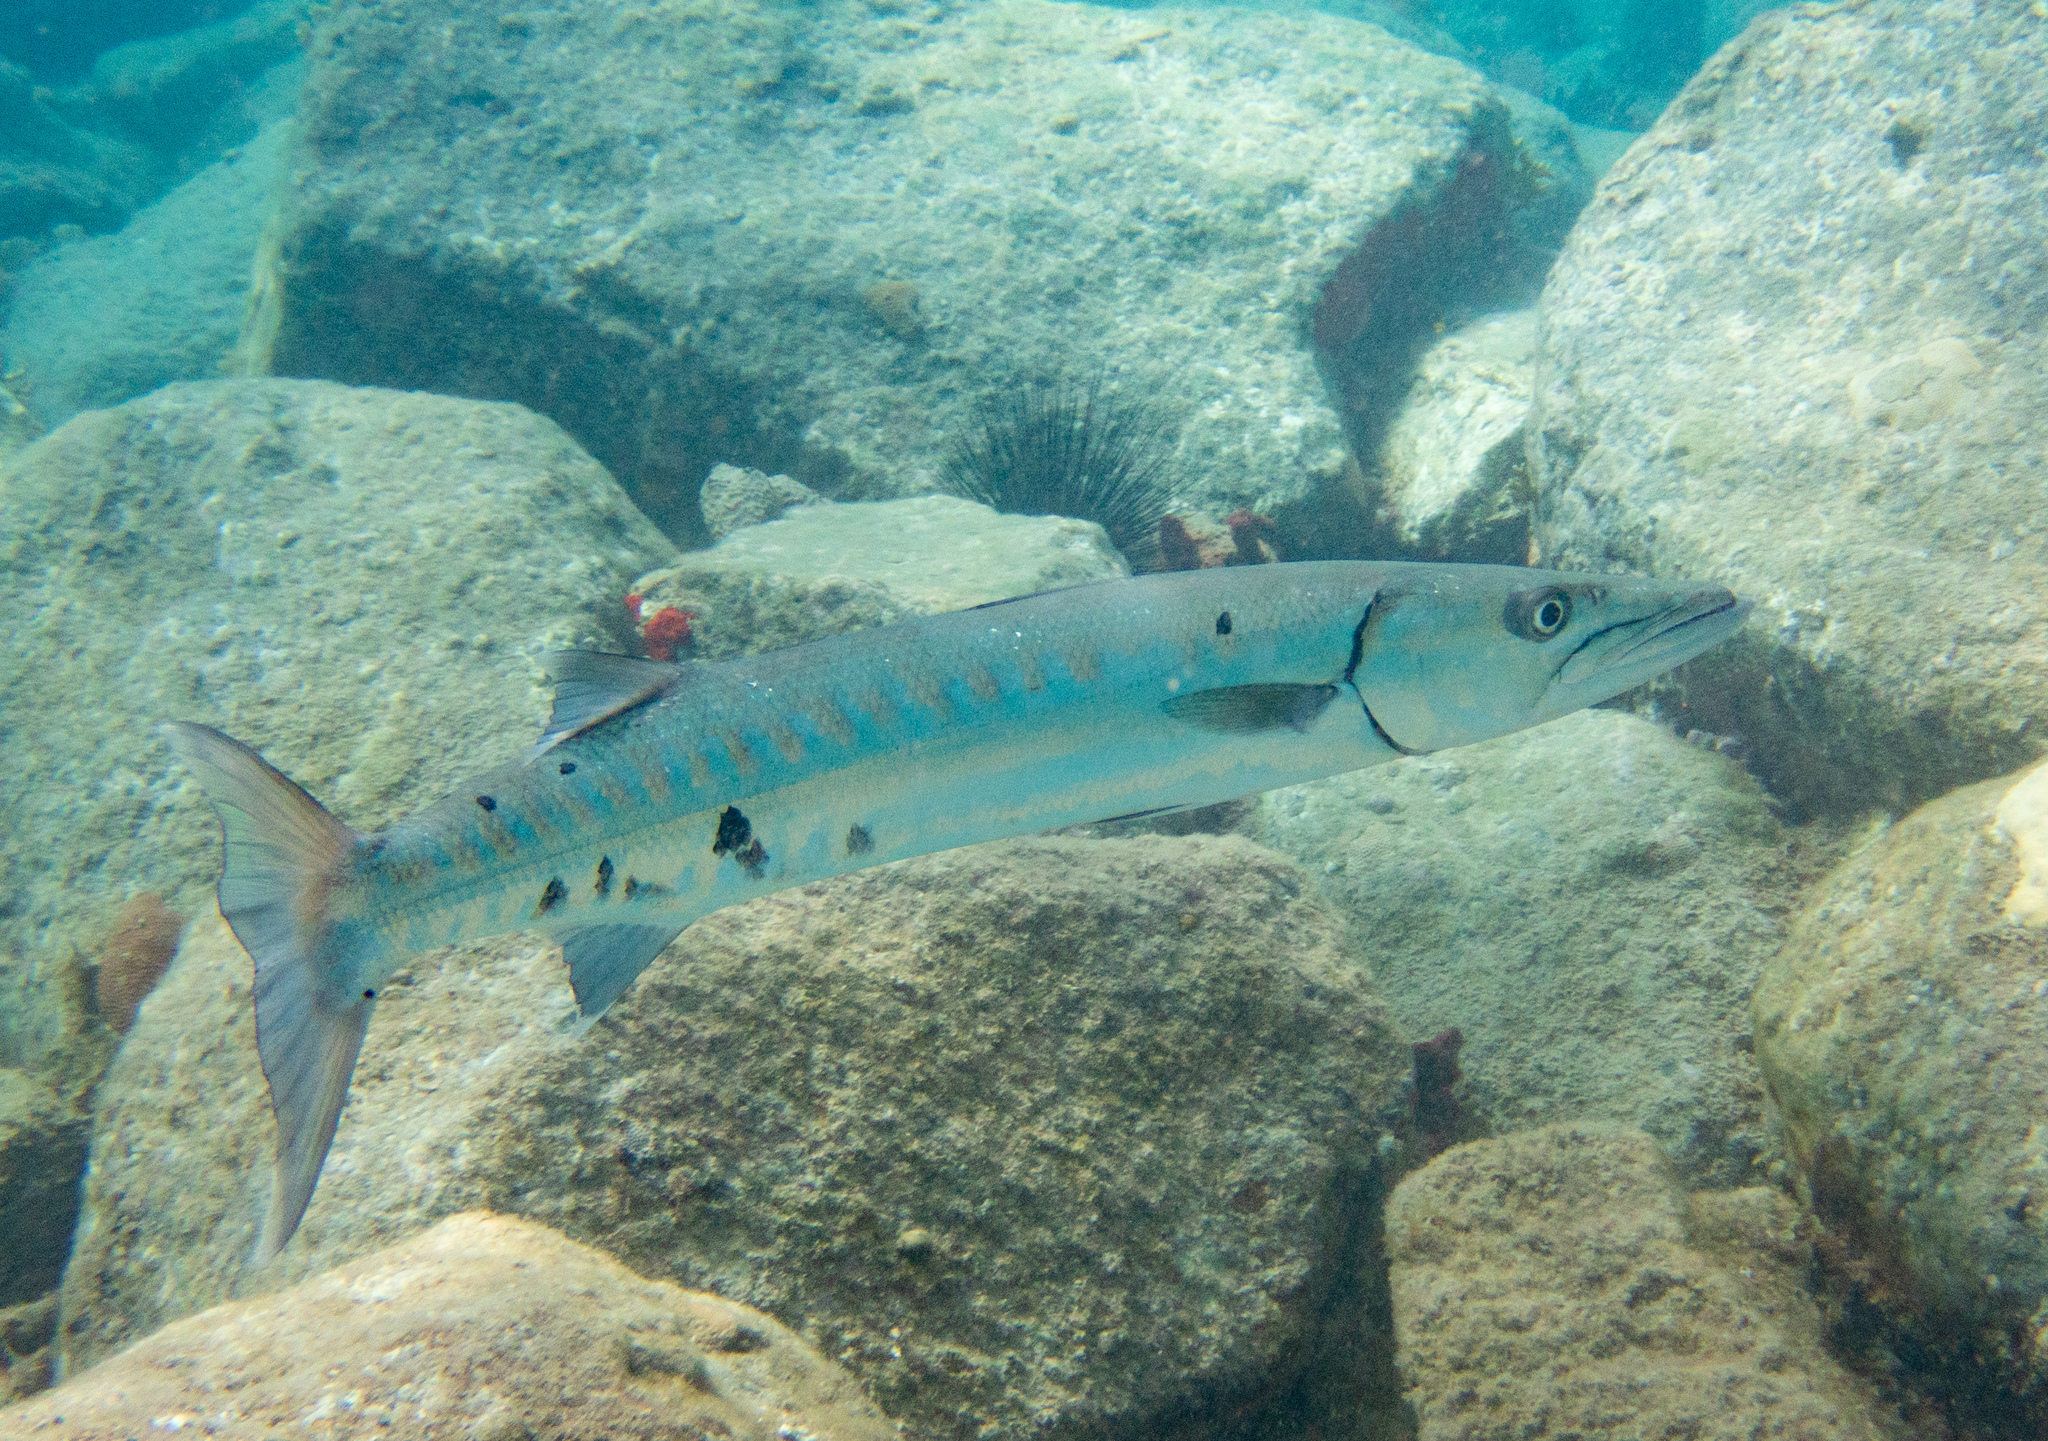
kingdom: Animalia
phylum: Chordata
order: Perciformes
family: Sphyraenidae
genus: Sphyraena
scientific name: Sphyraena barracuda
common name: Great barracuda
